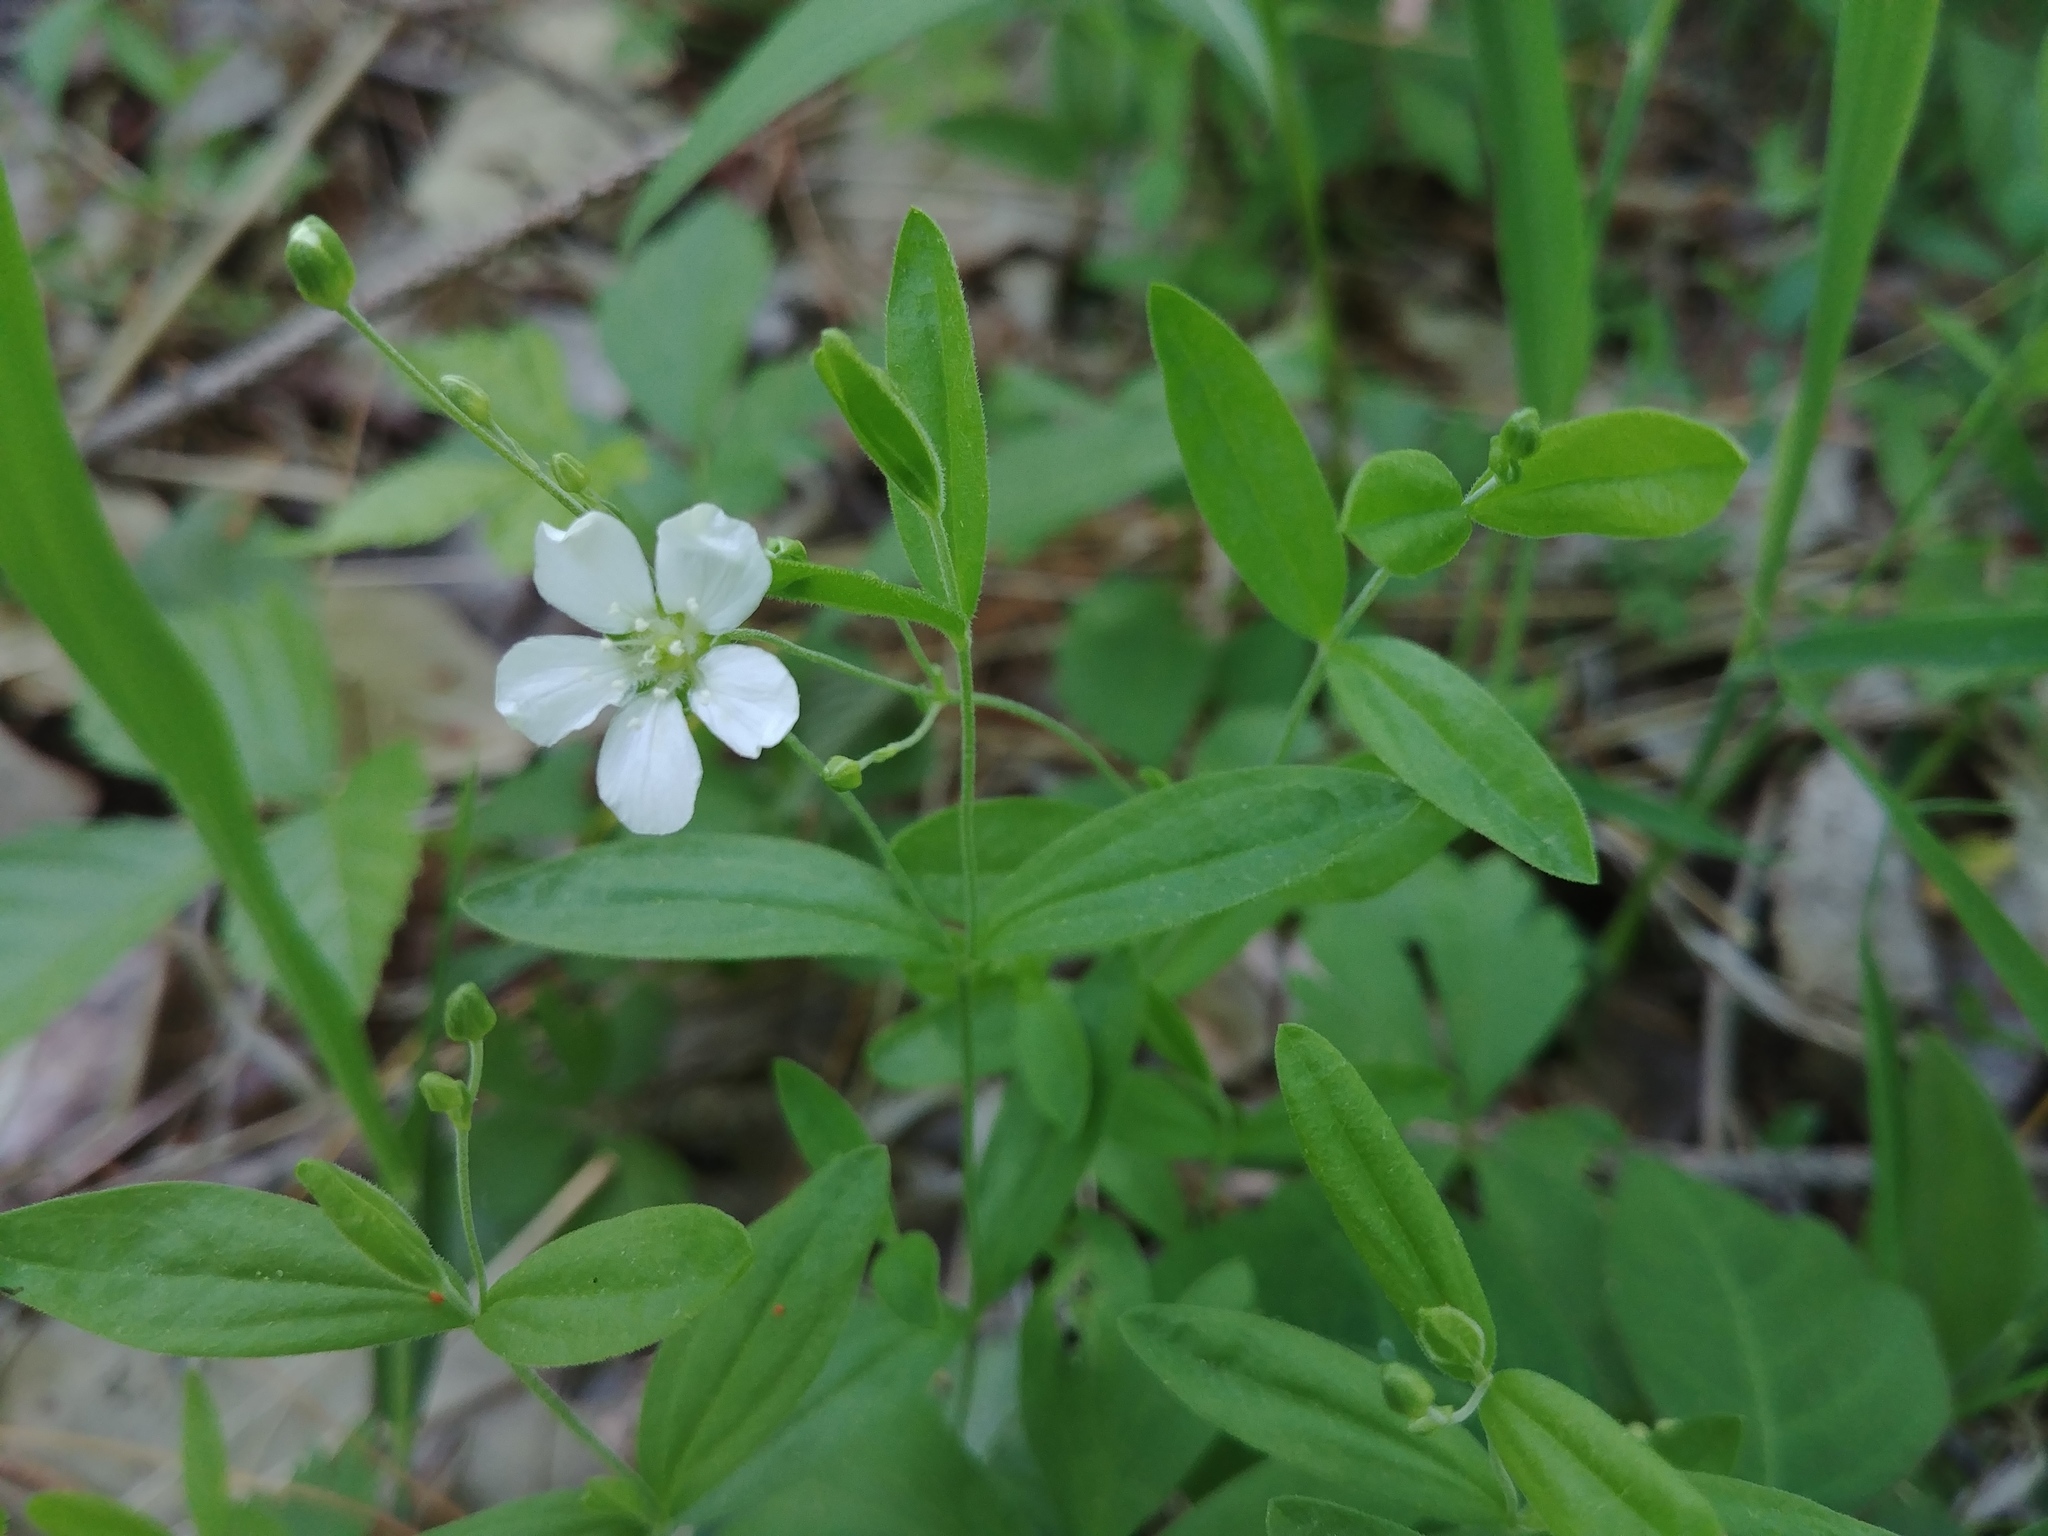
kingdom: Plantae
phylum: Tracheophyta
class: Magnoliopsida
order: Caryophyllales
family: Caryophyllaceae
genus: Moehringia
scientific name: Moehringia lateriflora
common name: Blunt-leaved sandwort
